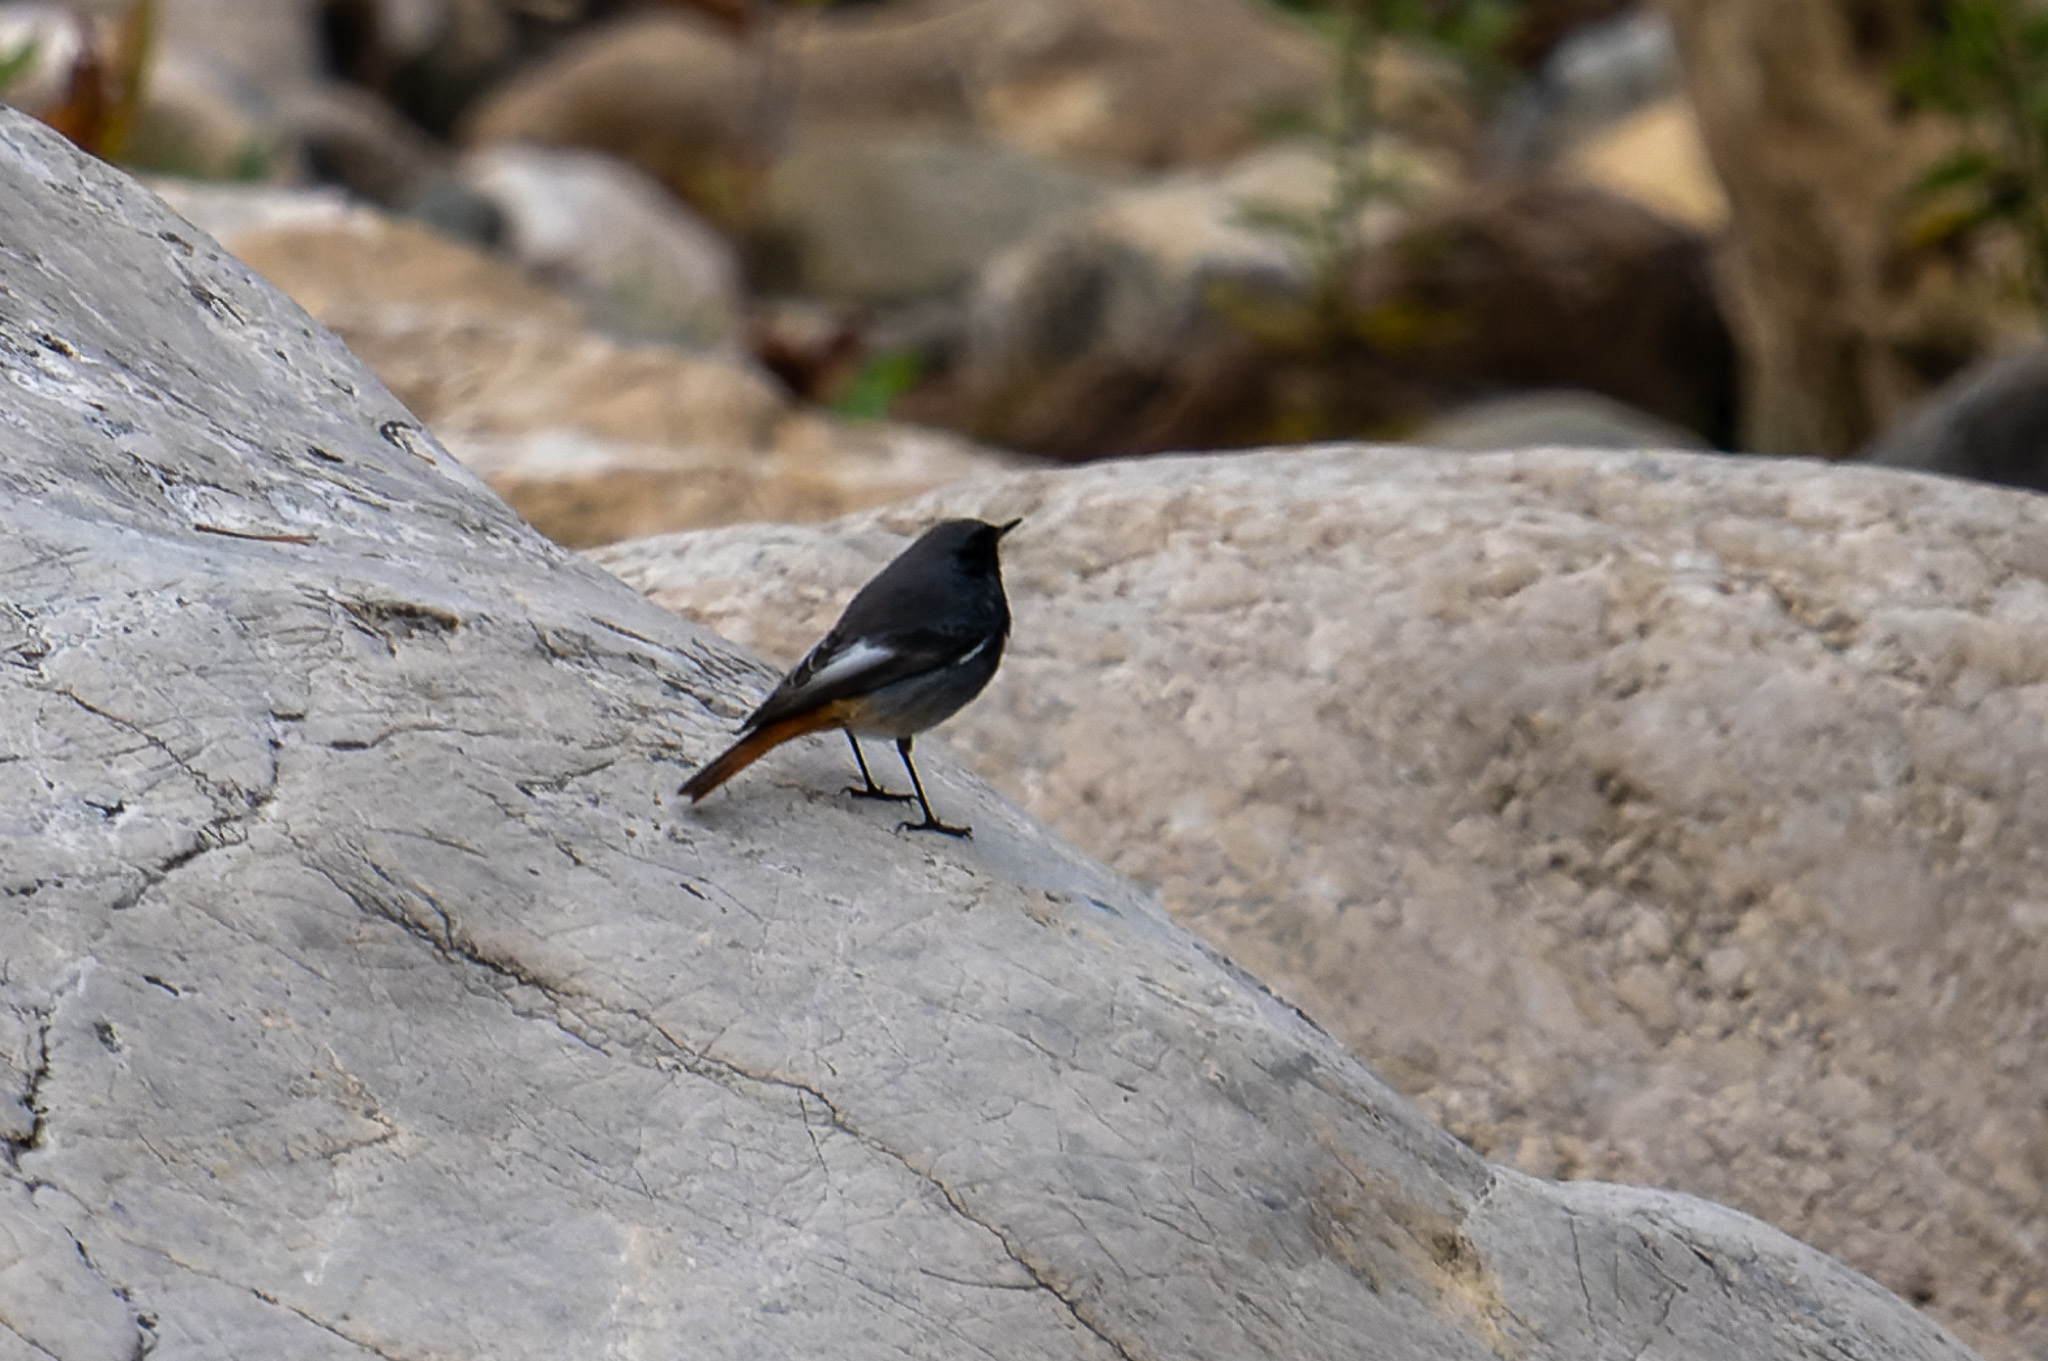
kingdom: Animalia
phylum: Chordata
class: Aves
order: Passeriformes
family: Muscicapidae
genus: Phoenicurus
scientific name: Phoenicurus ochruros
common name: Black redstart
